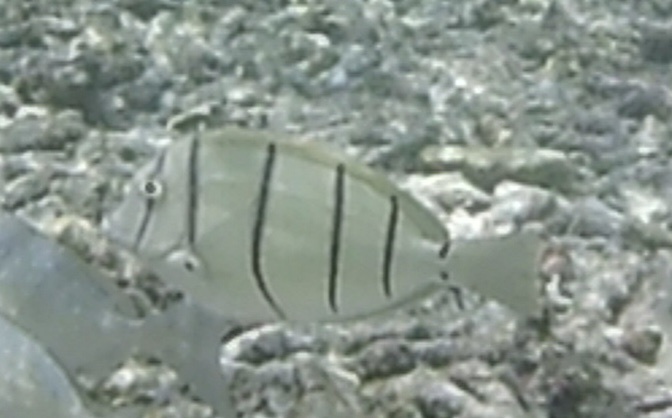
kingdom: Animalia
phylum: Chordata
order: Perciformes
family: Acanthuridae
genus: Acanthurus
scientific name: Acanthurus triostegus
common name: Convict surgeonfish
